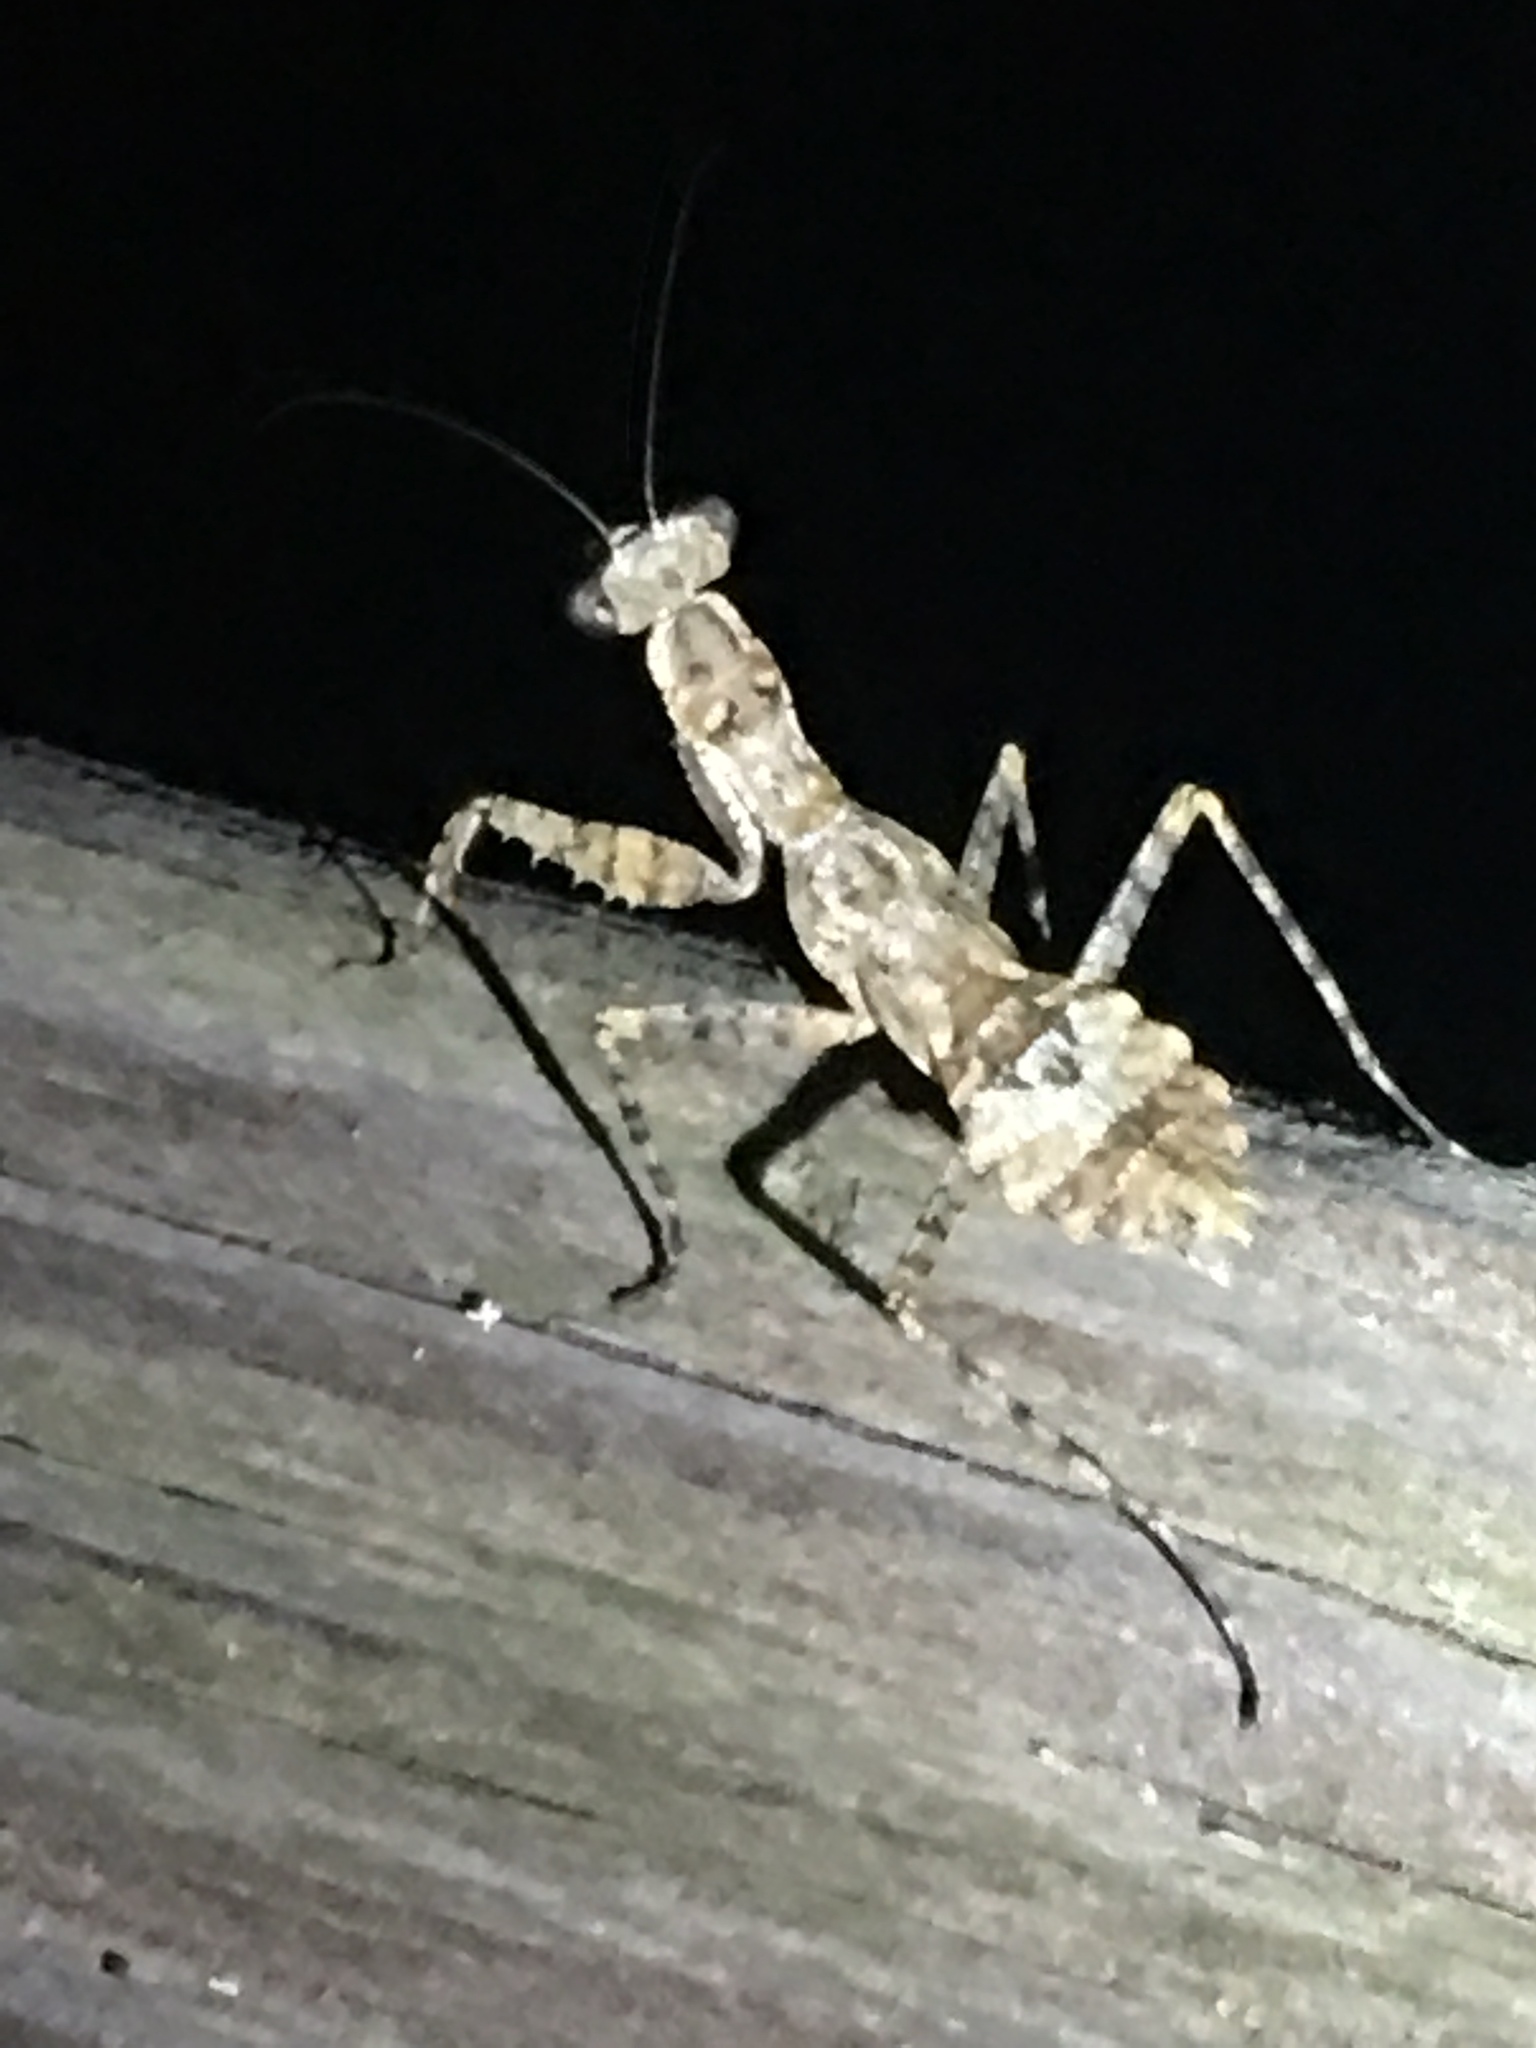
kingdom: Animalia
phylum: Arthropoda
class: Insecta
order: Mantodea
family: Epaphroditidae
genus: Gonatista
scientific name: Gonatista grisea
